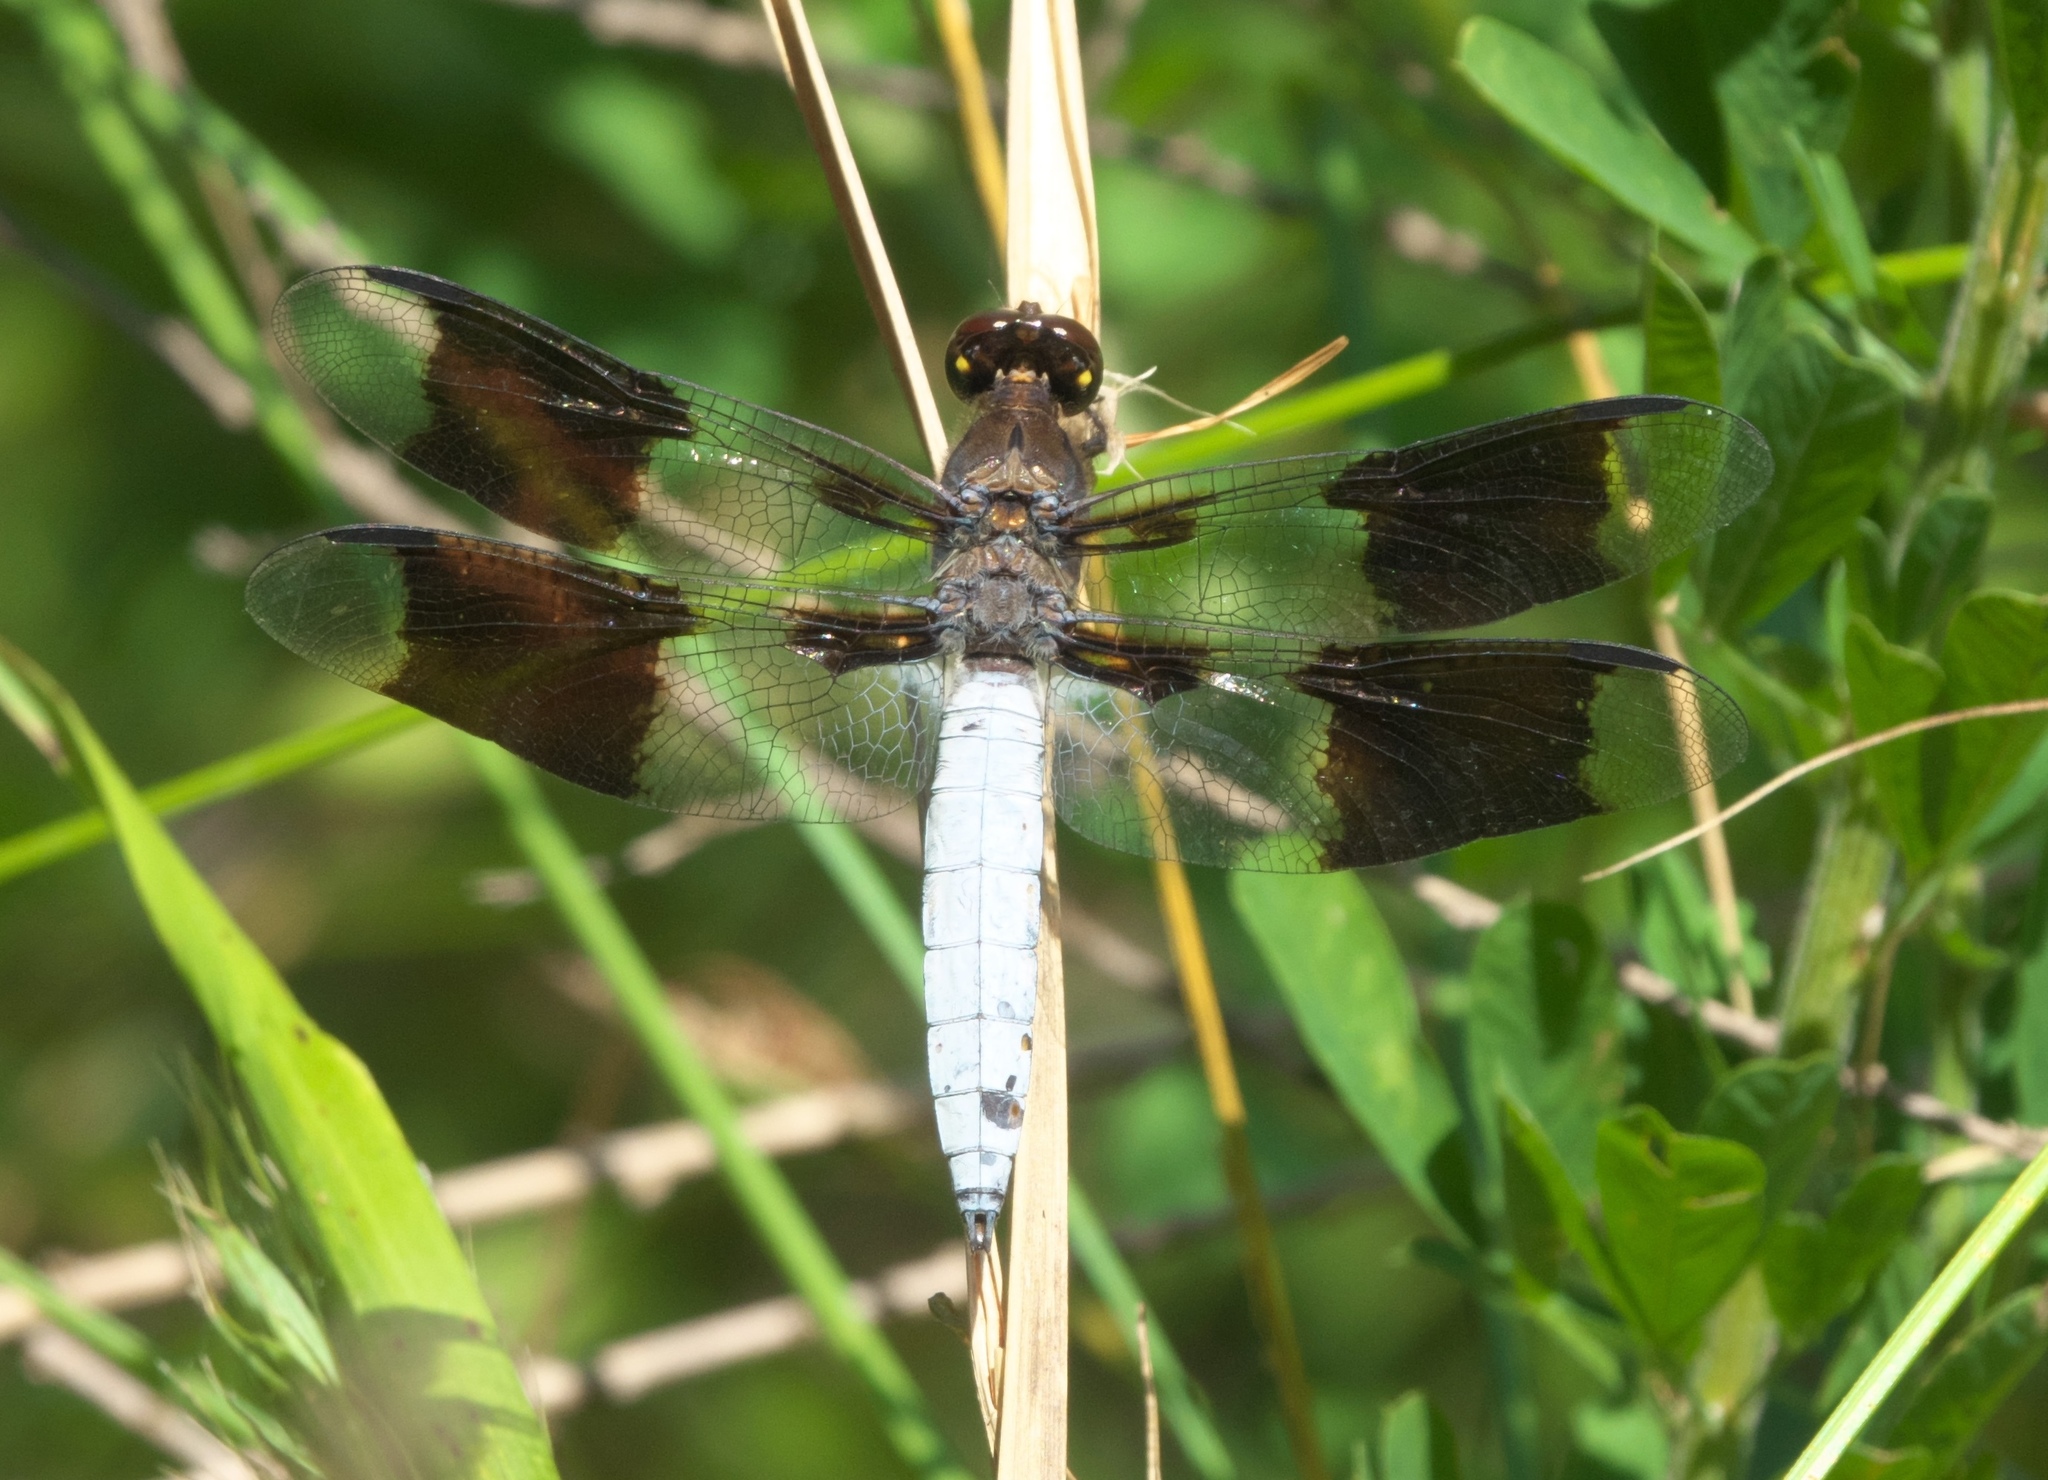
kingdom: Animalia
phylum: Arthropoda
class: Insecta
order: Odonata
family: Libellulidae
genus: Plathemis
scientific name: Plathemis lydia
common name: Common whitetail
